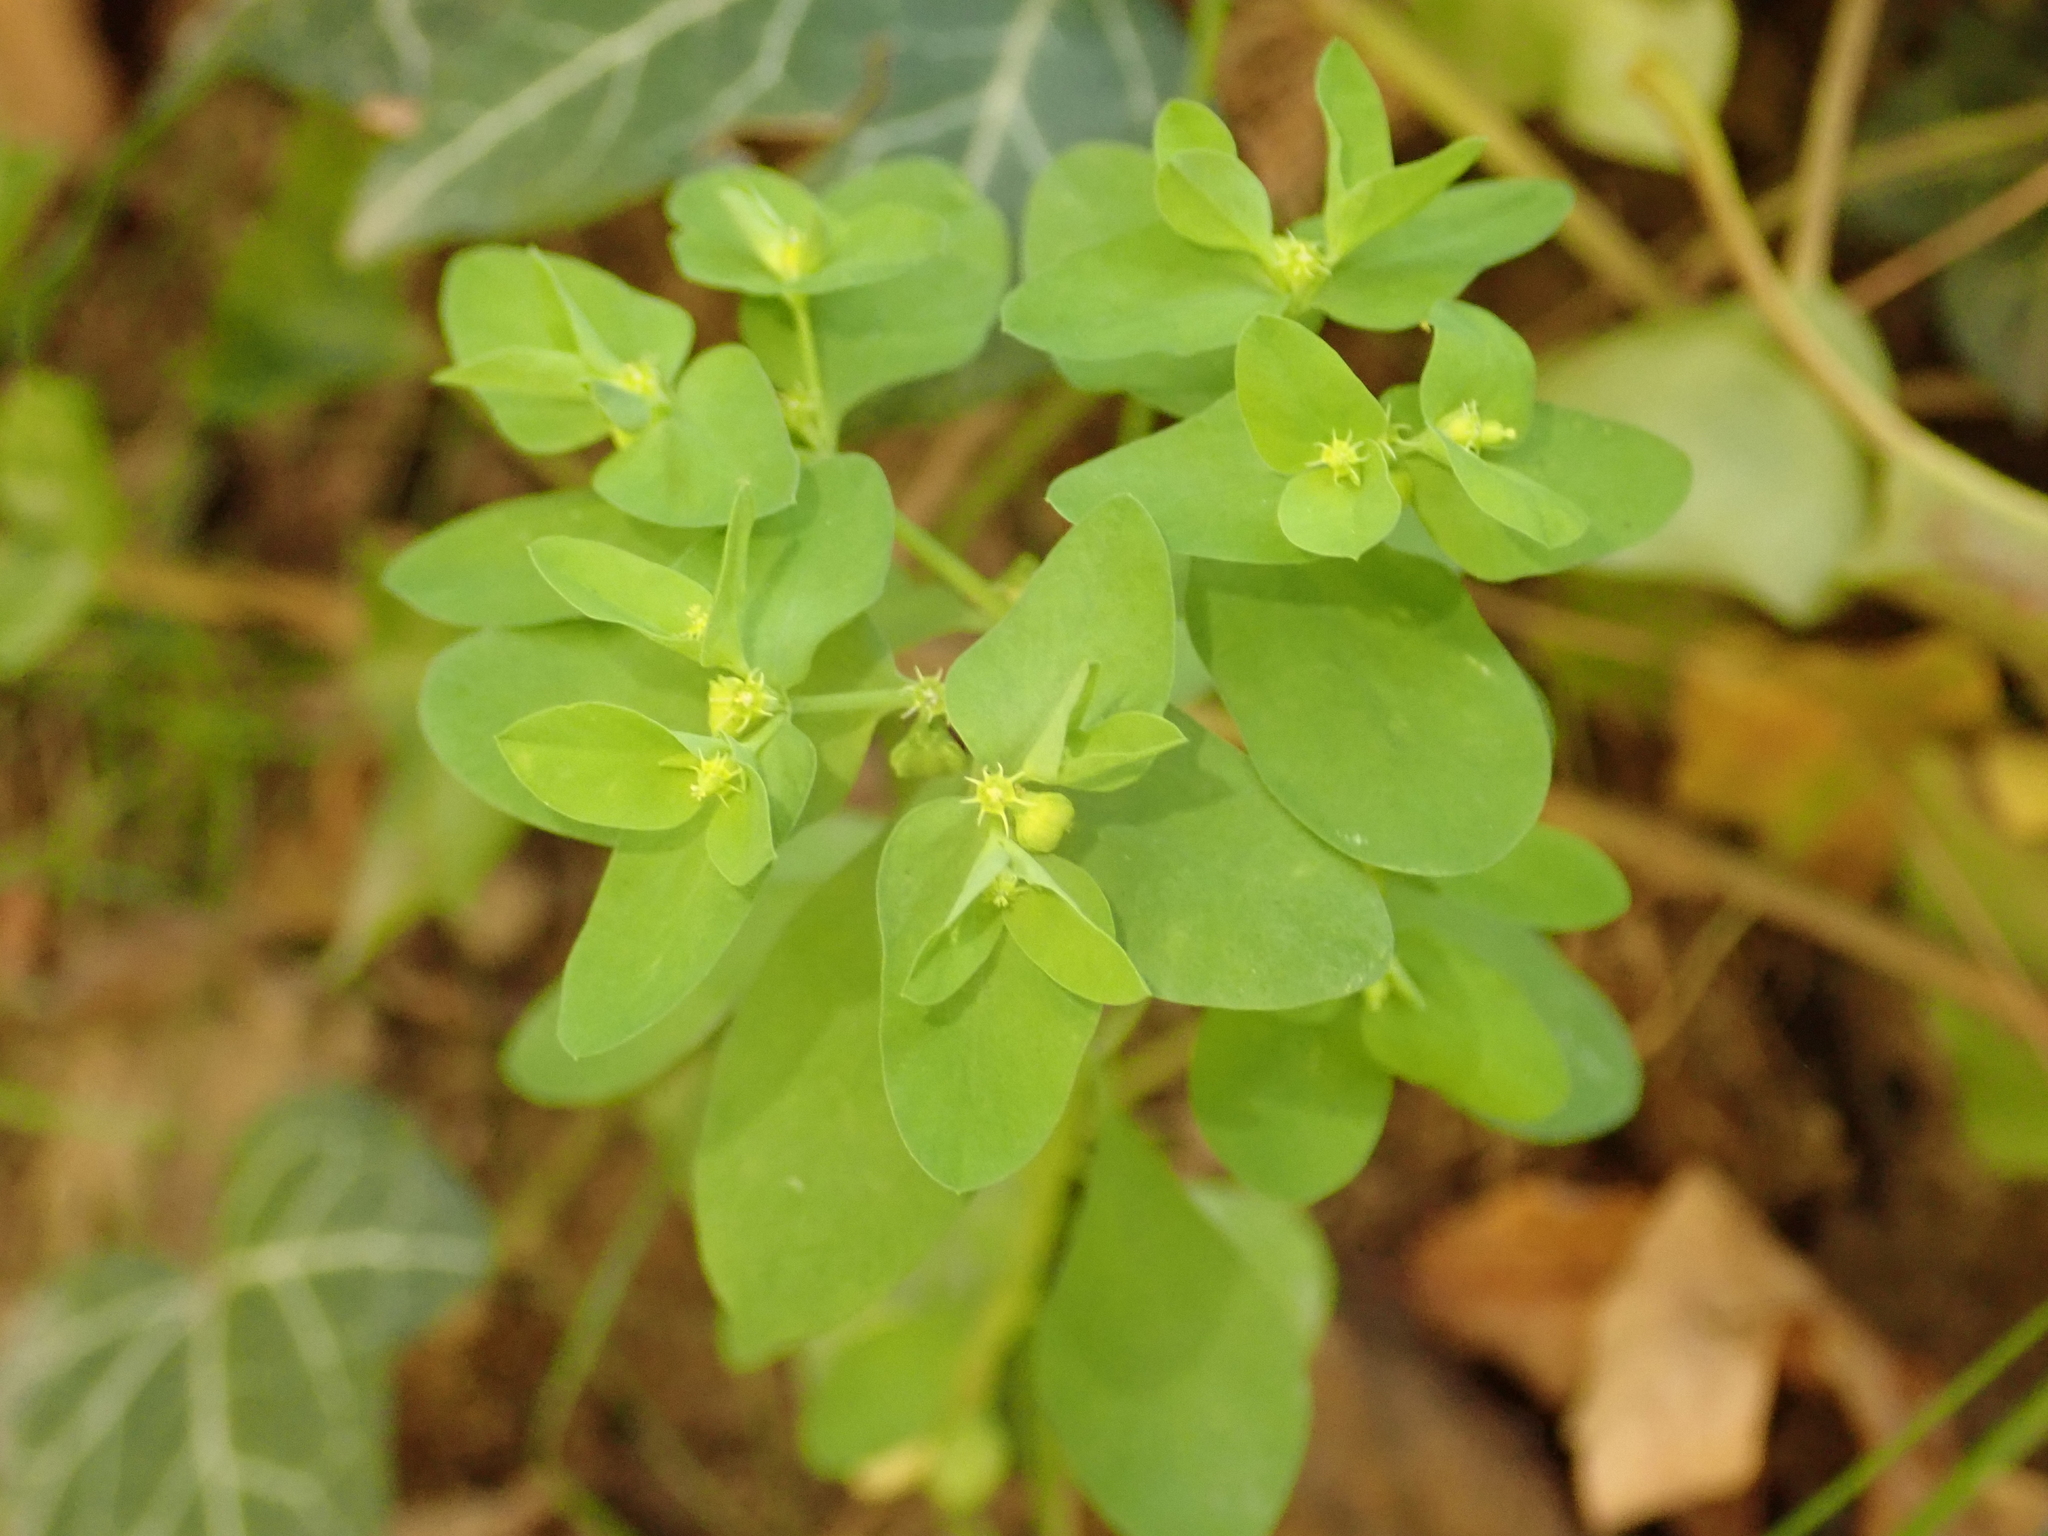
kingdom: Plantae
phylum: Tracheophyta
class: Magnoliopsida
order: Malpighiales
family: Euphorbiaceae
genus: Euphorbia
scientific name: Euphorbia peplus
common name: Petty spurge
